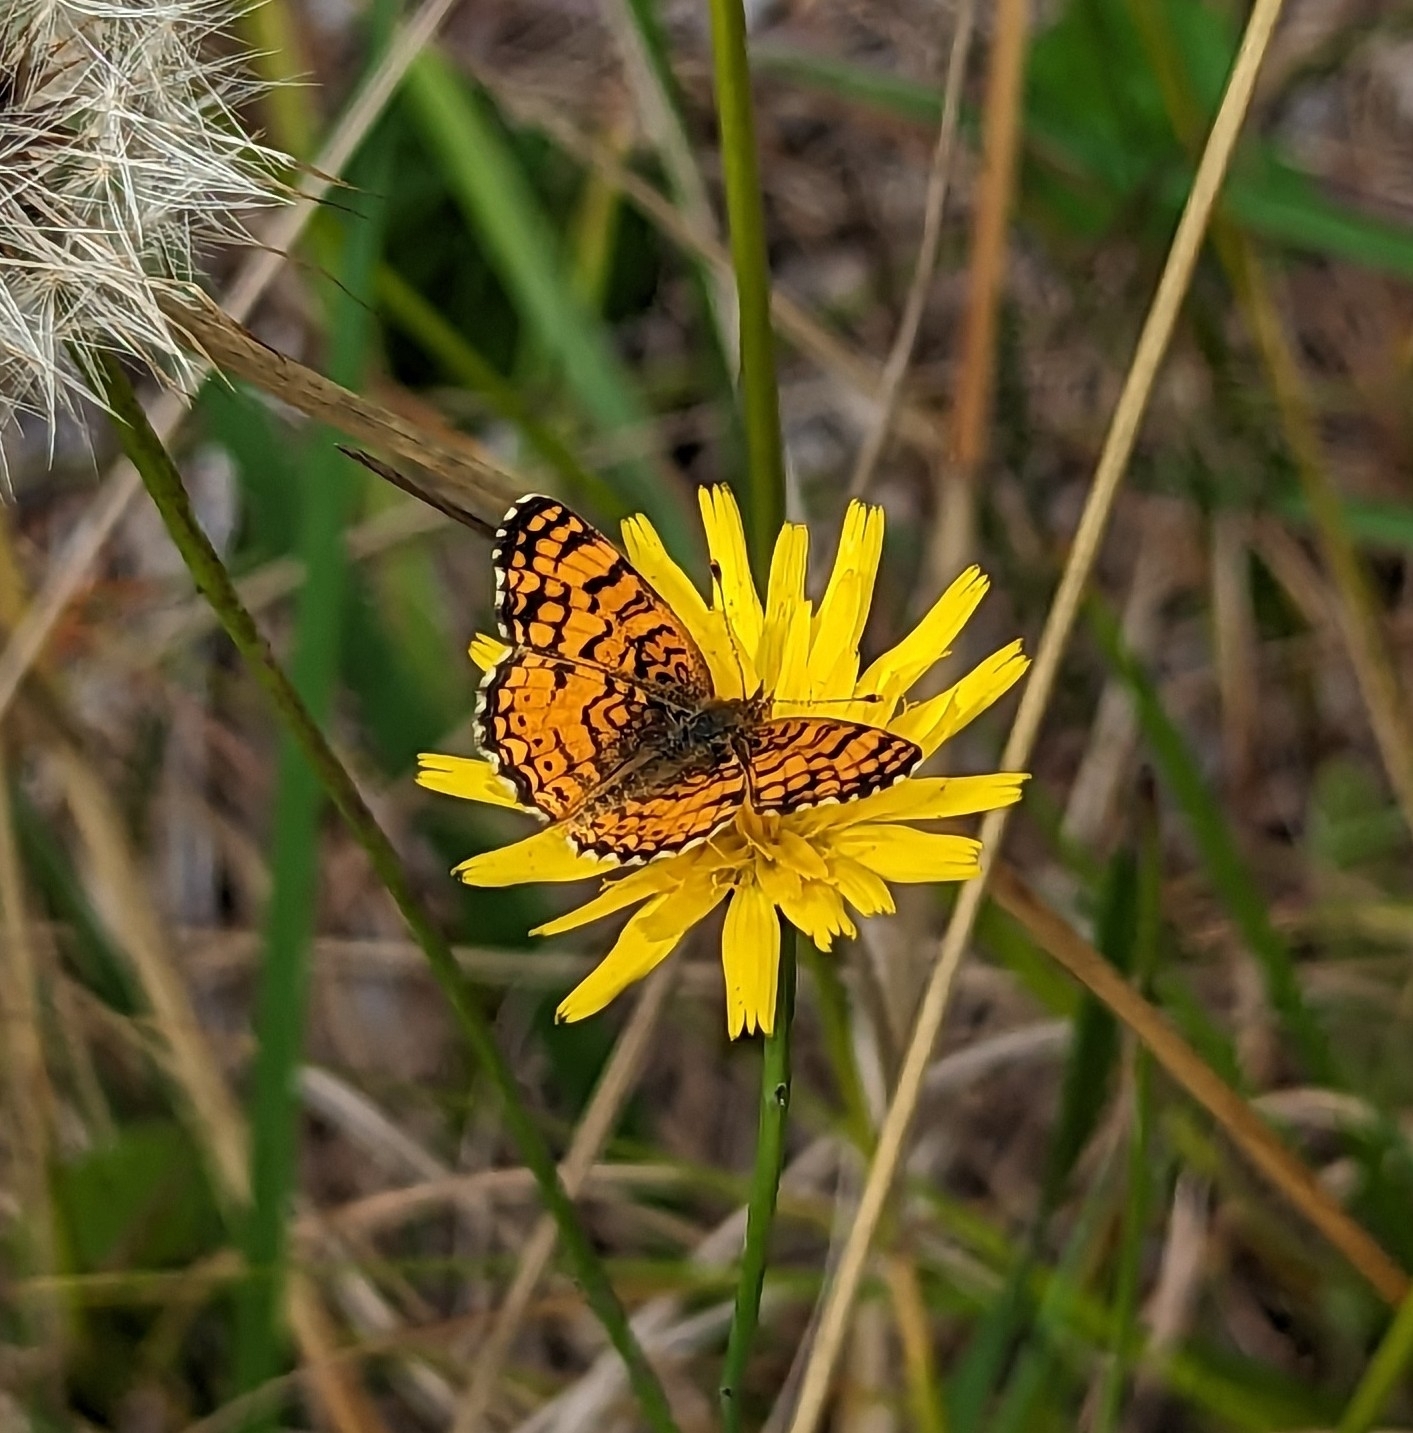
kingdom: Animalia
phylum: Arthropoda
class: Insecta
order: Lepidoptera
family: Nymphalidae
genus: Eresia
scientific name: Eresia aveyrona
